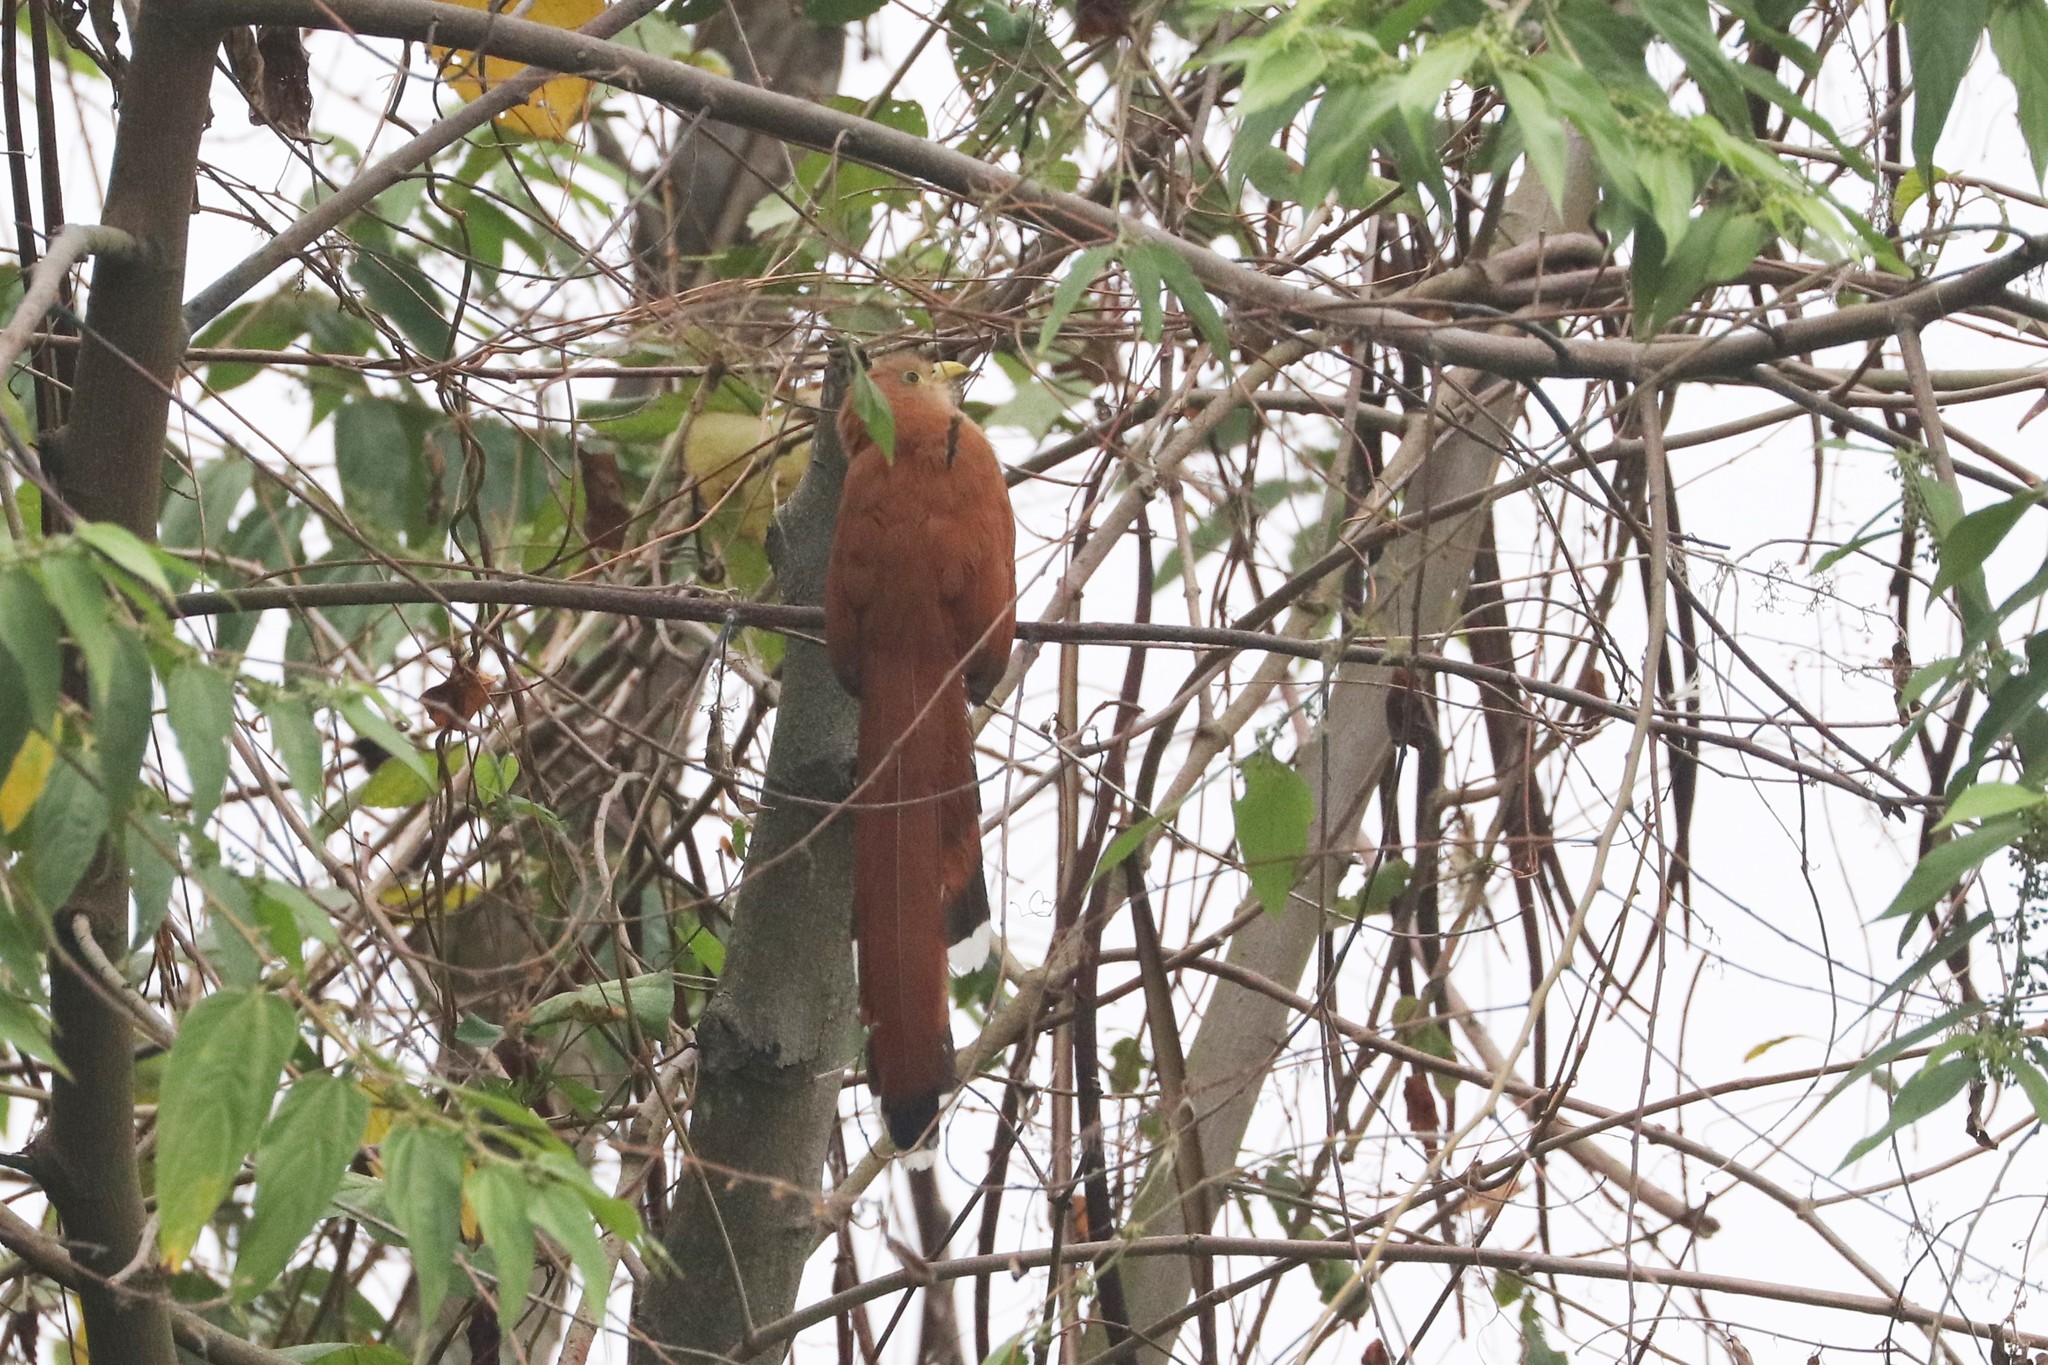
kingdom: Animalia
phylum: Chordata
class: Aves
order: Cuculiformes
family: Cuculidae
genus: Piaya
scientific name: Piaya cayana
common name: Squirrel cuckoo
